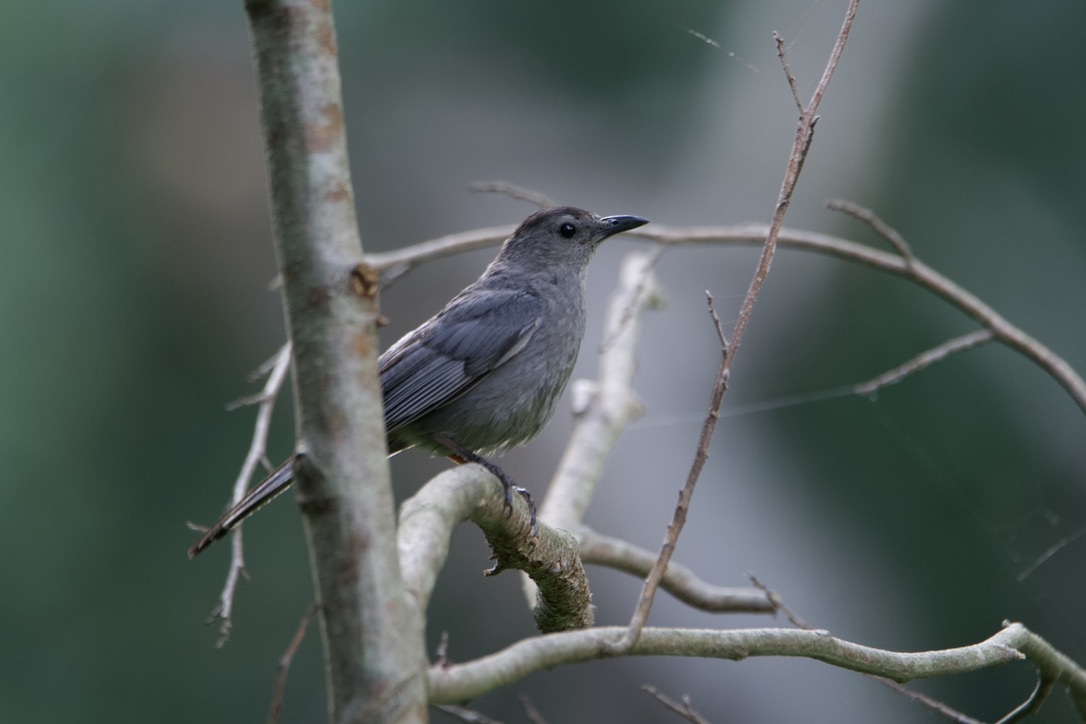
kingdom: Animalia
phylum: Chordata
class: Aves
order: Passeriformes
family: Mimidae
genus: Dumetella
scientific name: Dumetella carolinensis
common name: Gray catbird
